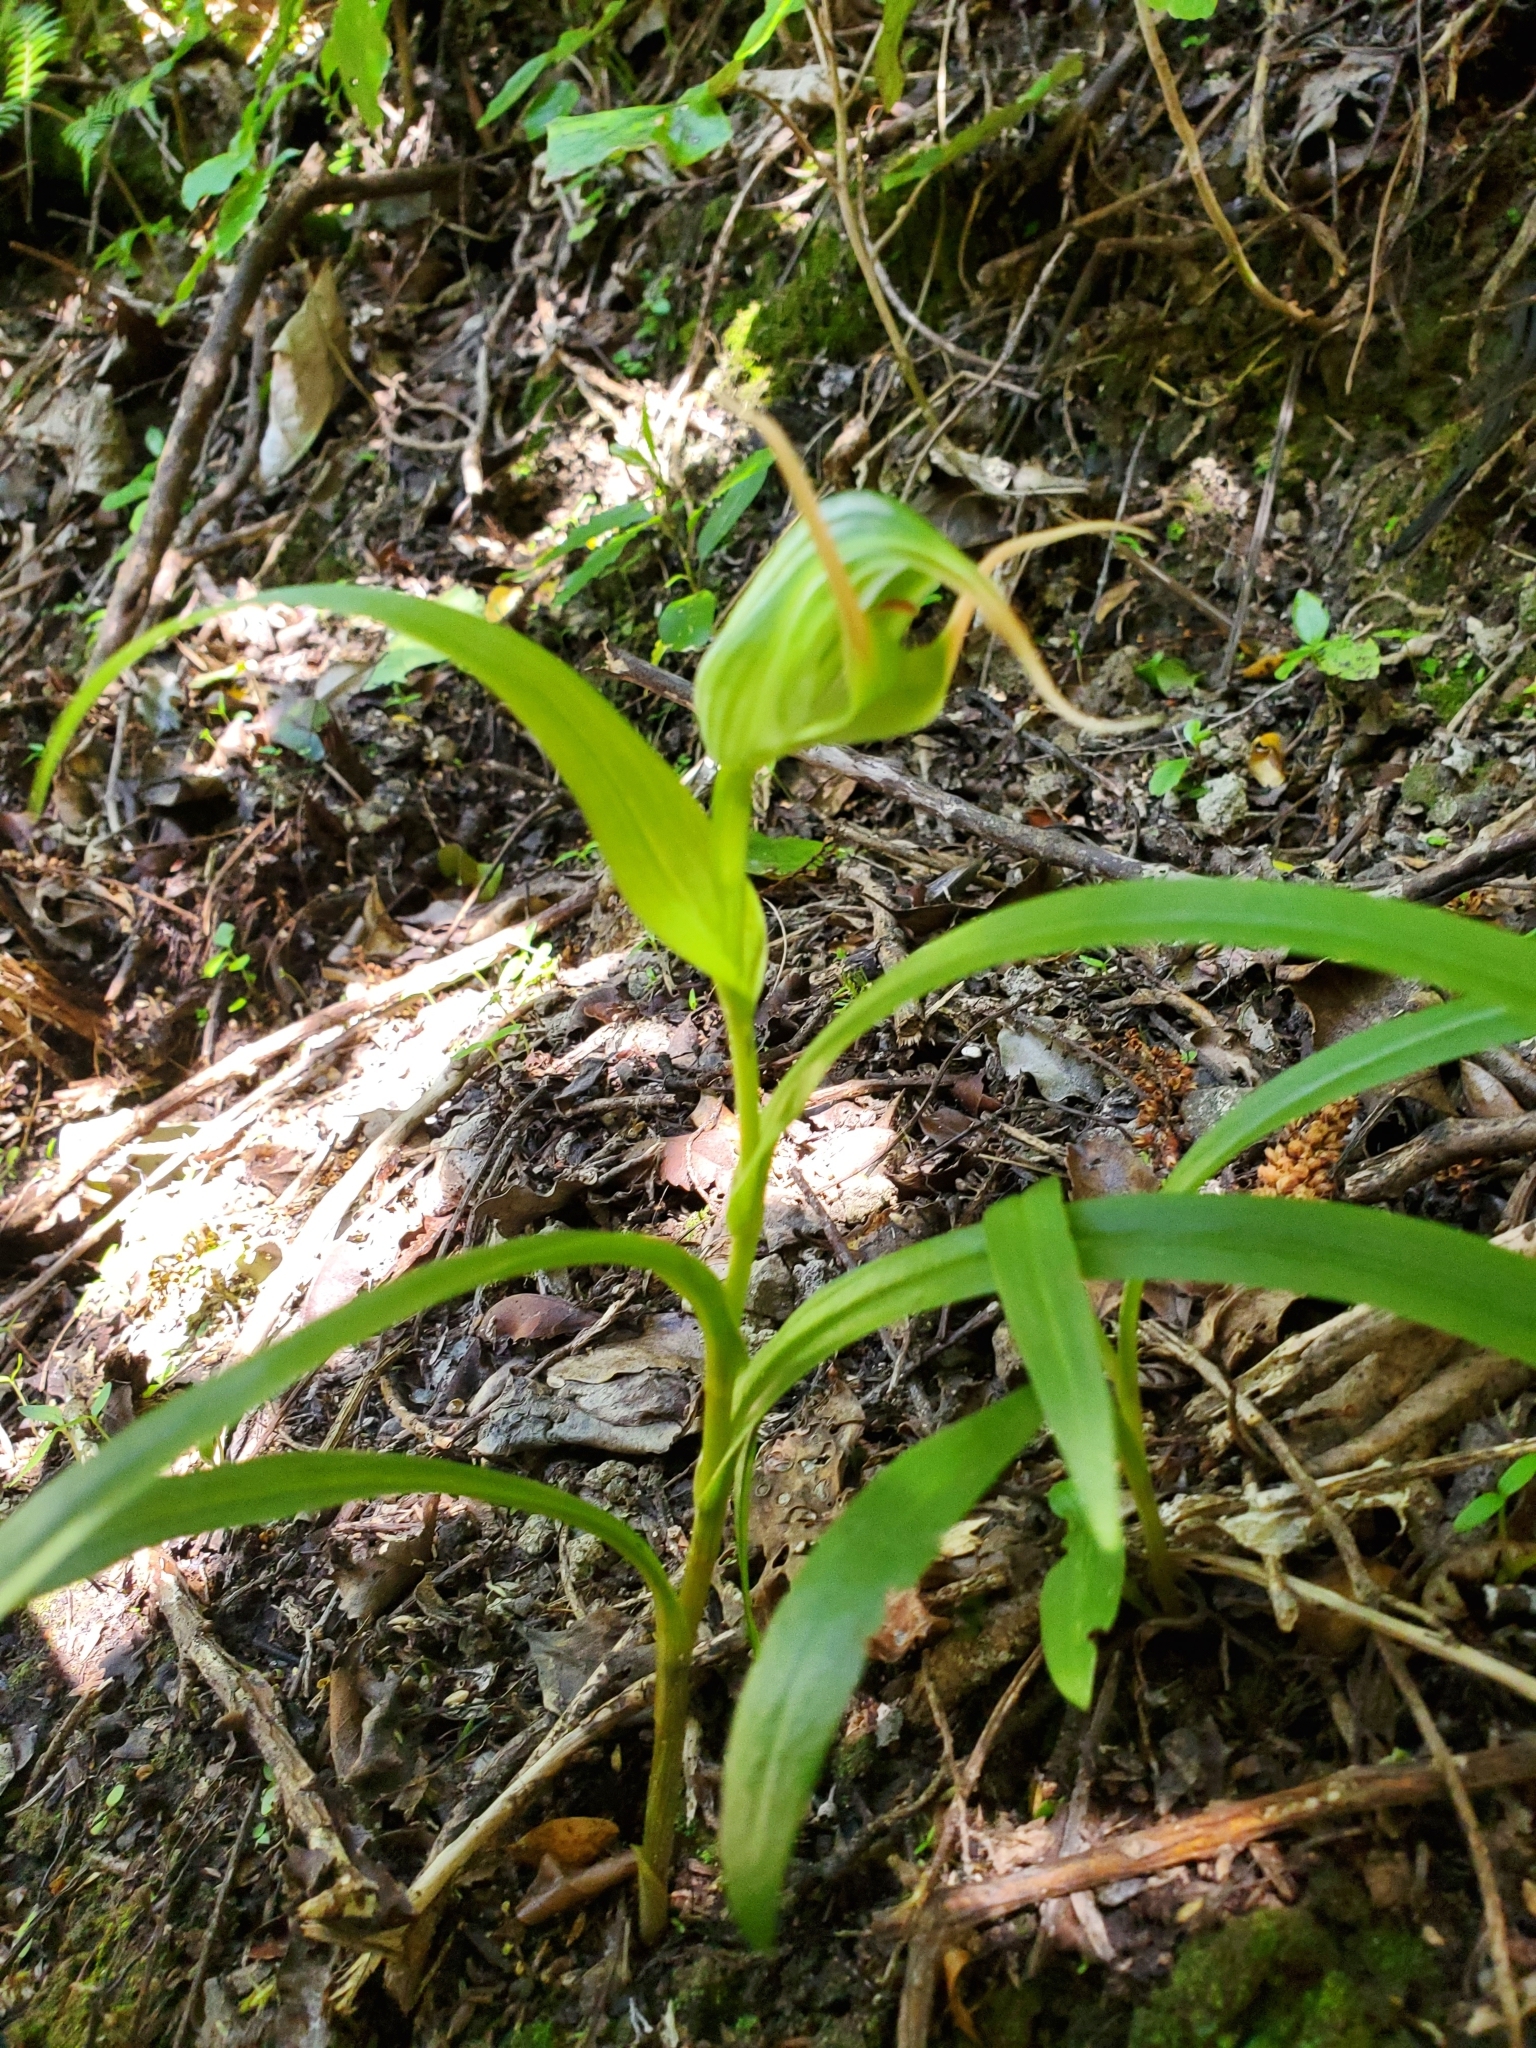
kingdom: Plantae
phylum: Tracheophyta
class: Liliopsida
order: Asparagales
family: Orchidaceae
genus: Pterostylis
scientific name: Pterostylis banksii
